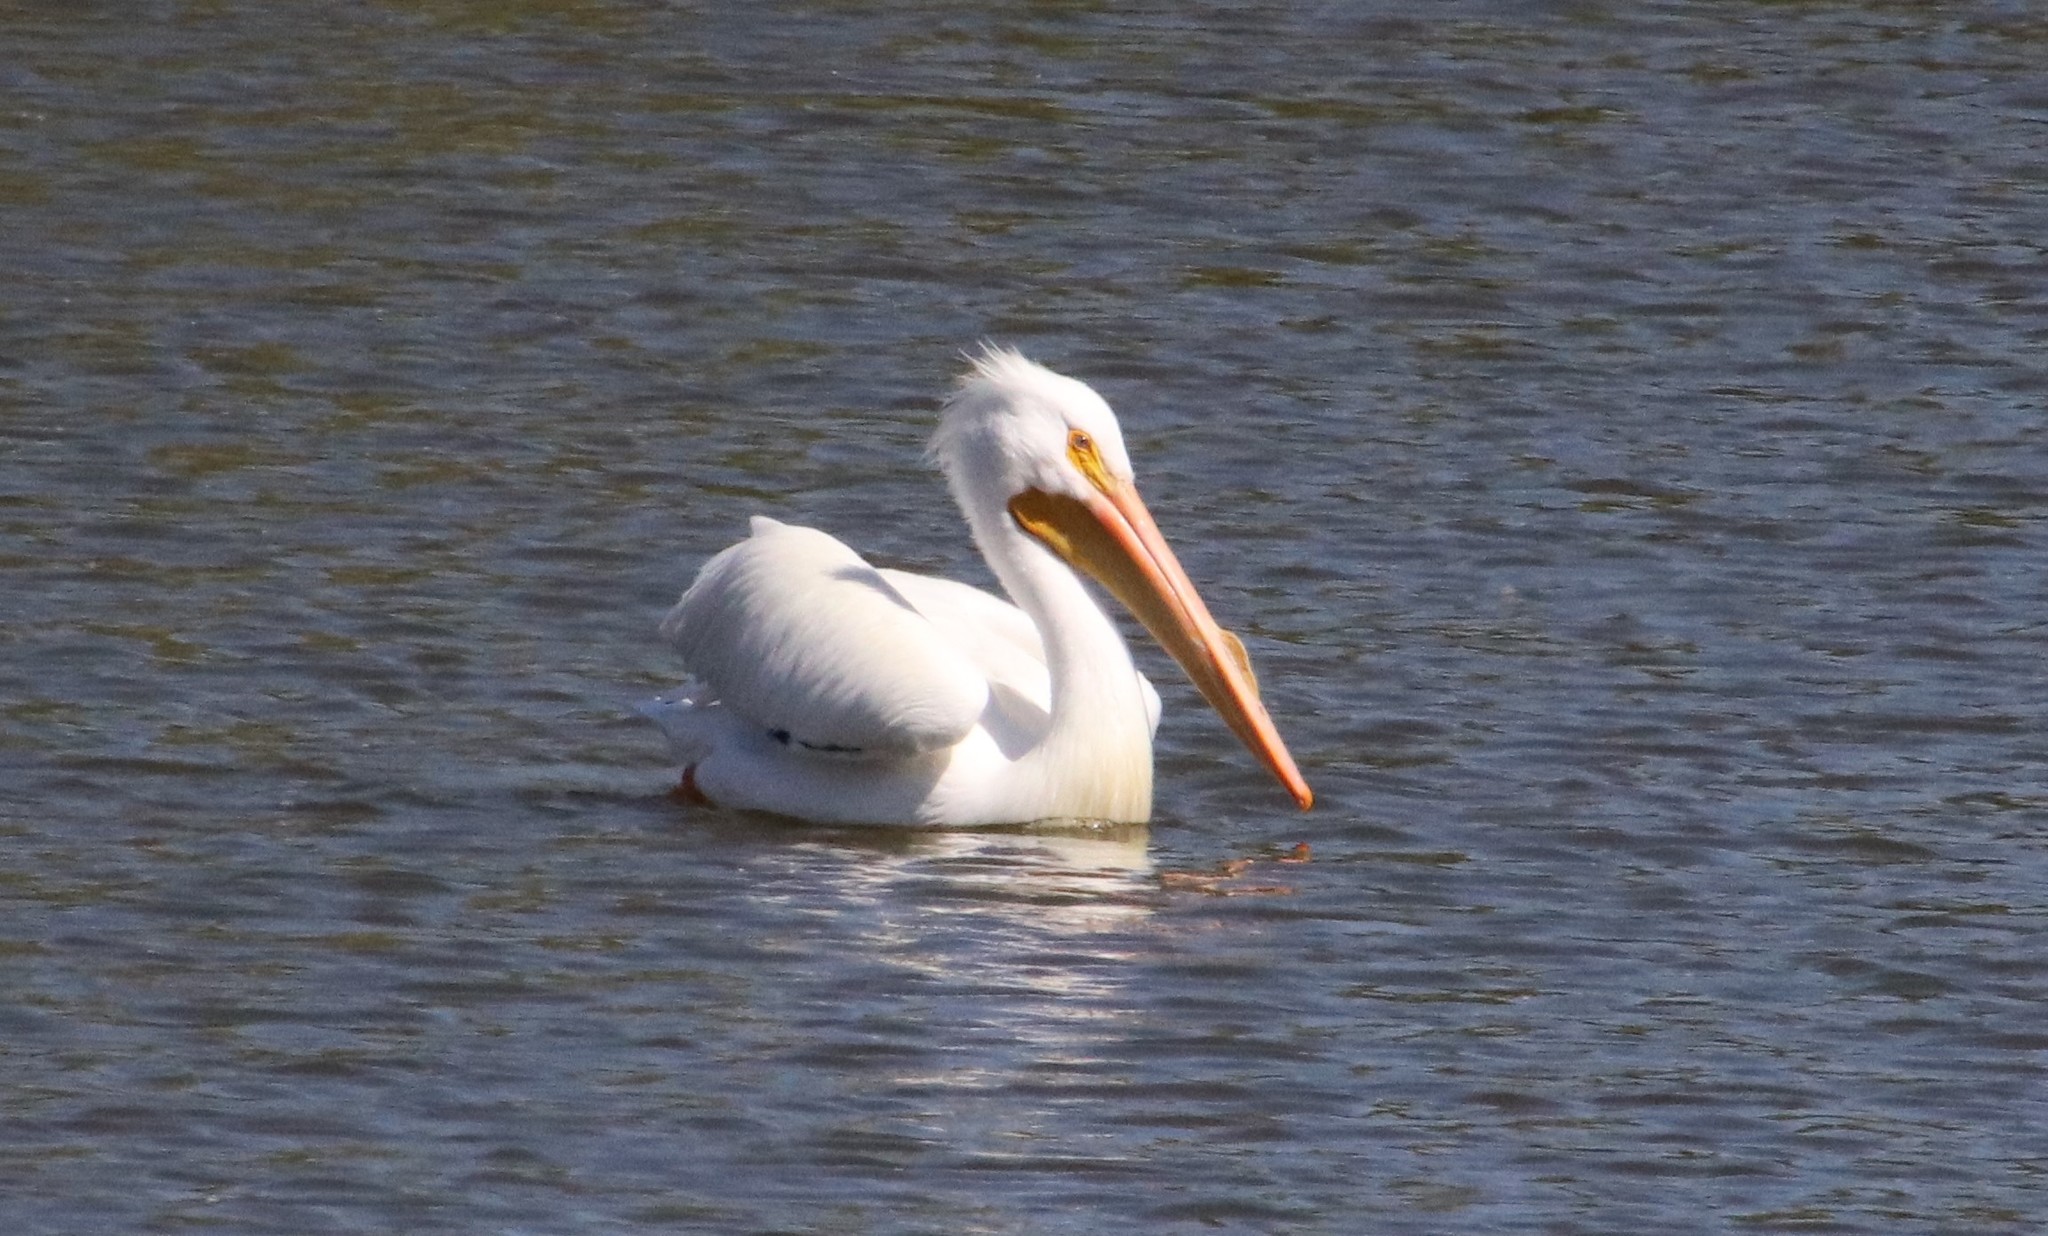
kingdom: Animalia
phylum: Chordata
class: Aves
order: Pelecaniformes
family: Pelecanidae
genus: Pelecanus
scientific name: Pelecanus erythrorhynchos
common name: American white pelican
